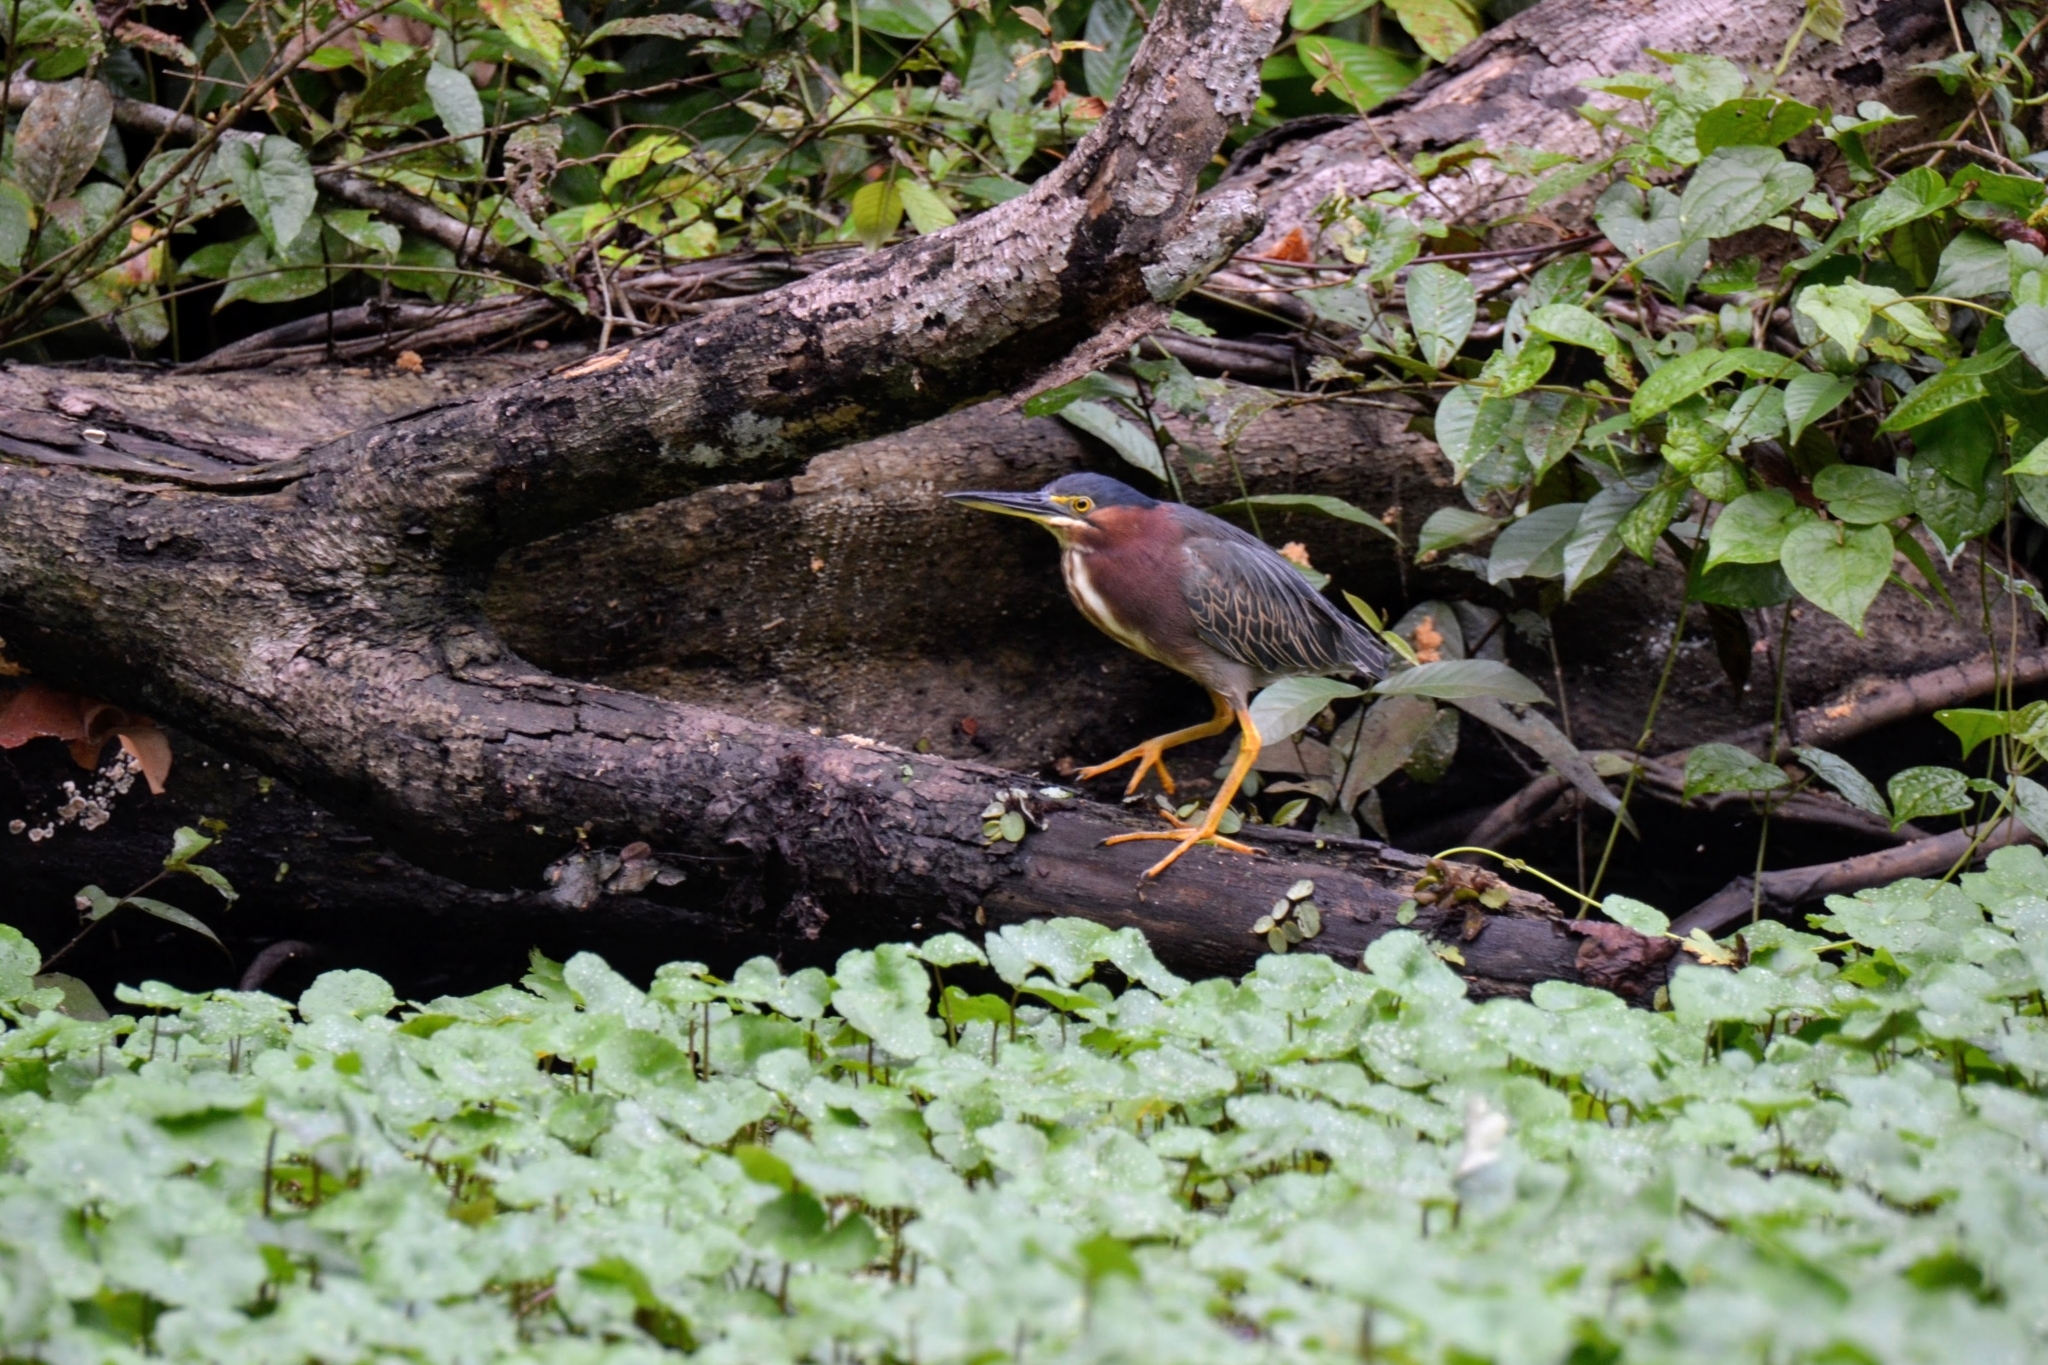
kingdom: Animalia
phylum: Chordata
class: Aves
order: Pelecaniformes
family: Ardeidae
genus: Butorides
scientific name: Butorides virescens
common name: Green heron
